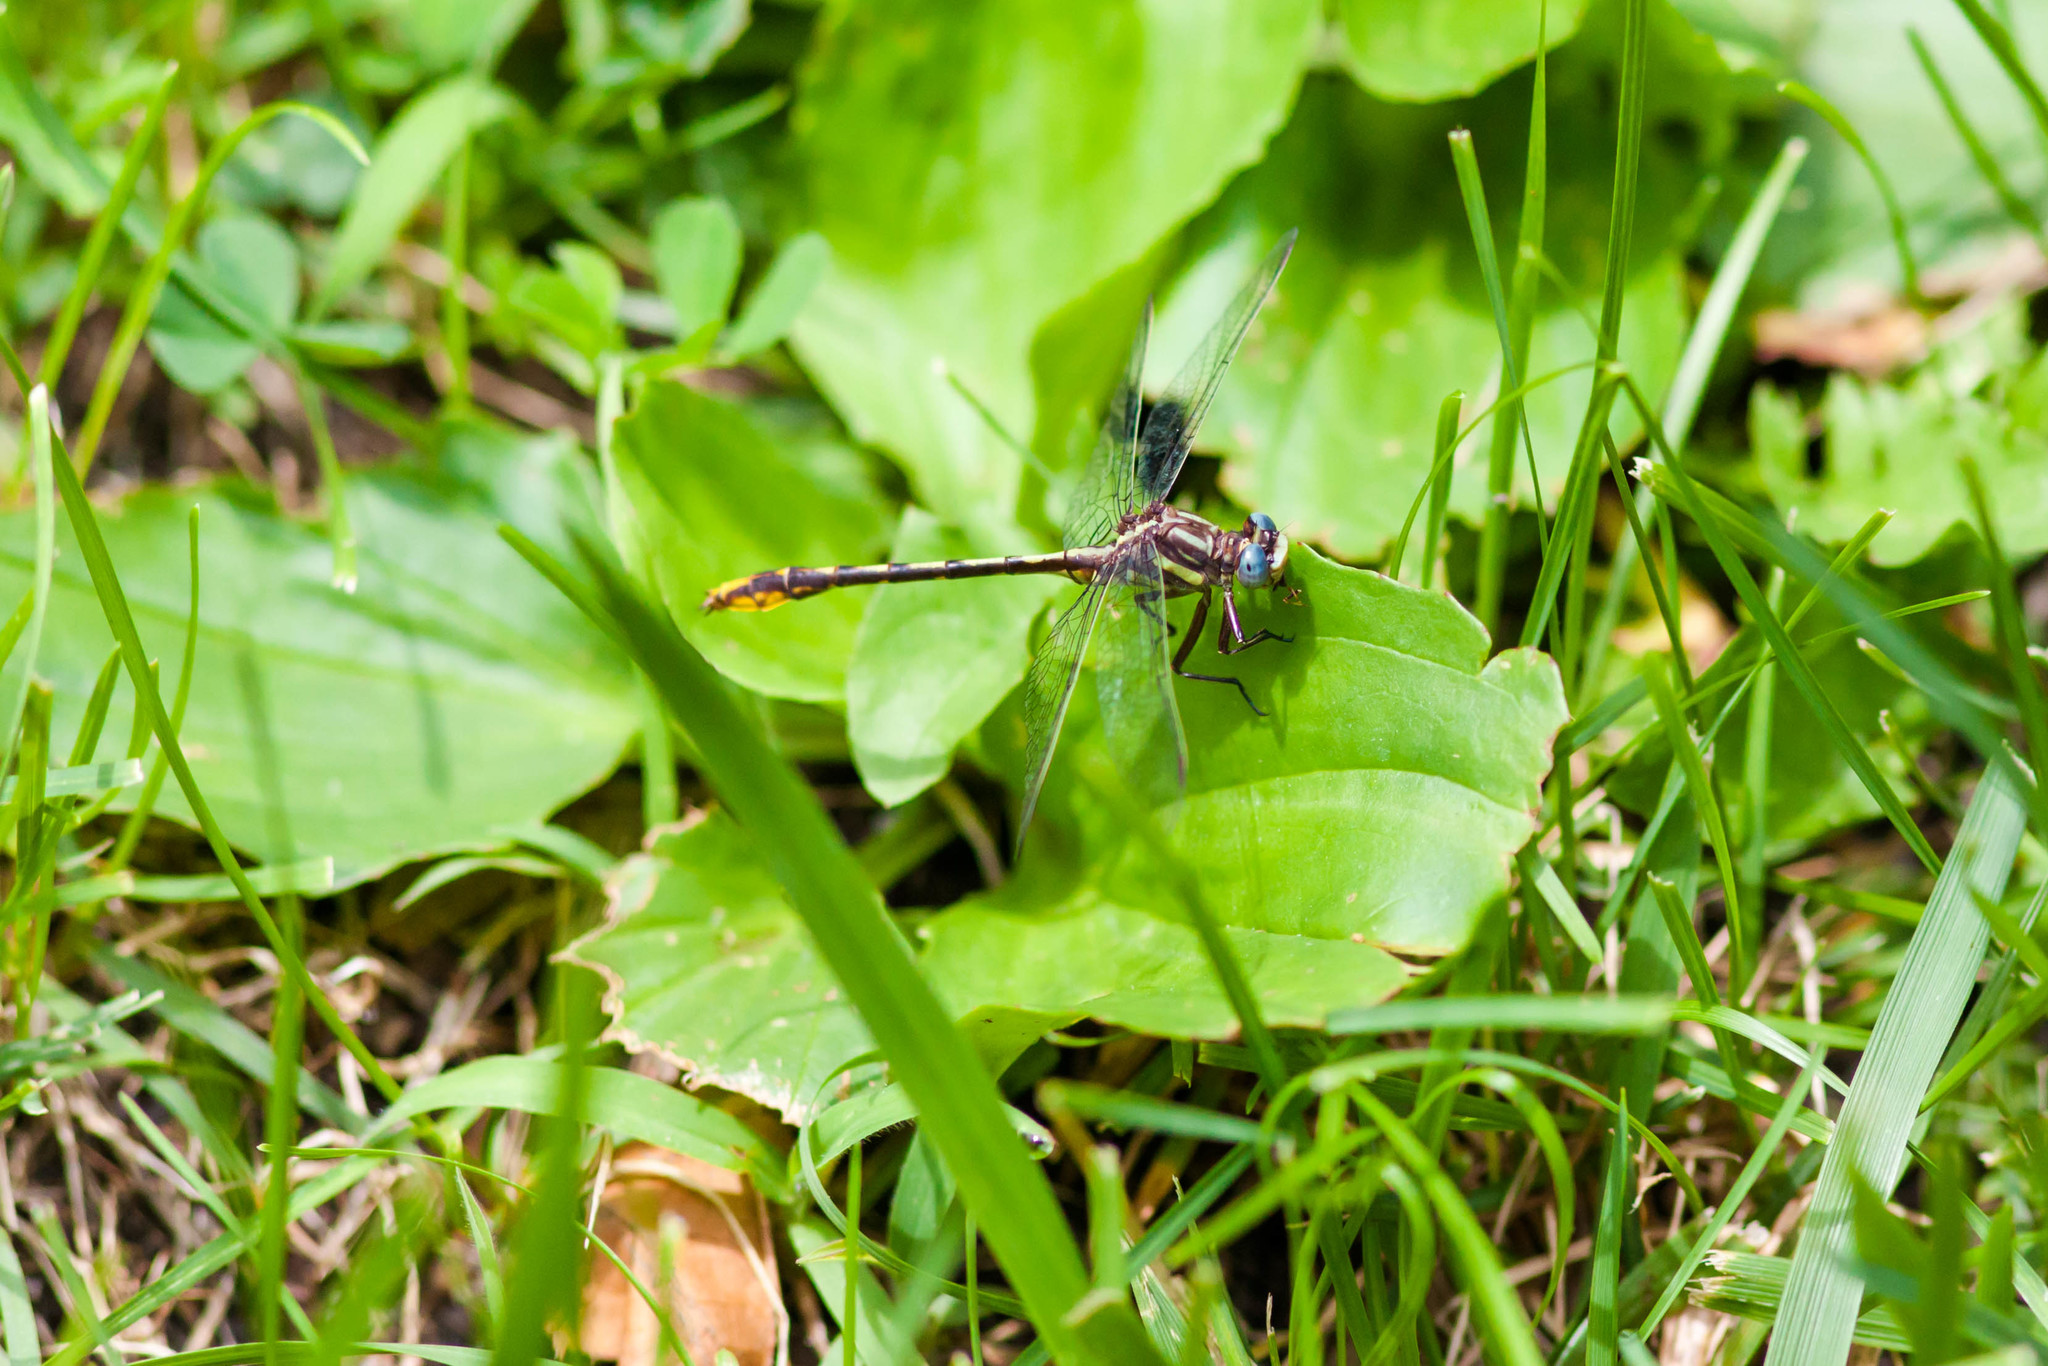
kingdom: Animalia
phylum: Arthropoda
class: Insecta
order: Odonata
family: Gomphidae
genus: Phanogomphus
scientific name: Phanogomphus exilis
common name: Lancet clubtail
